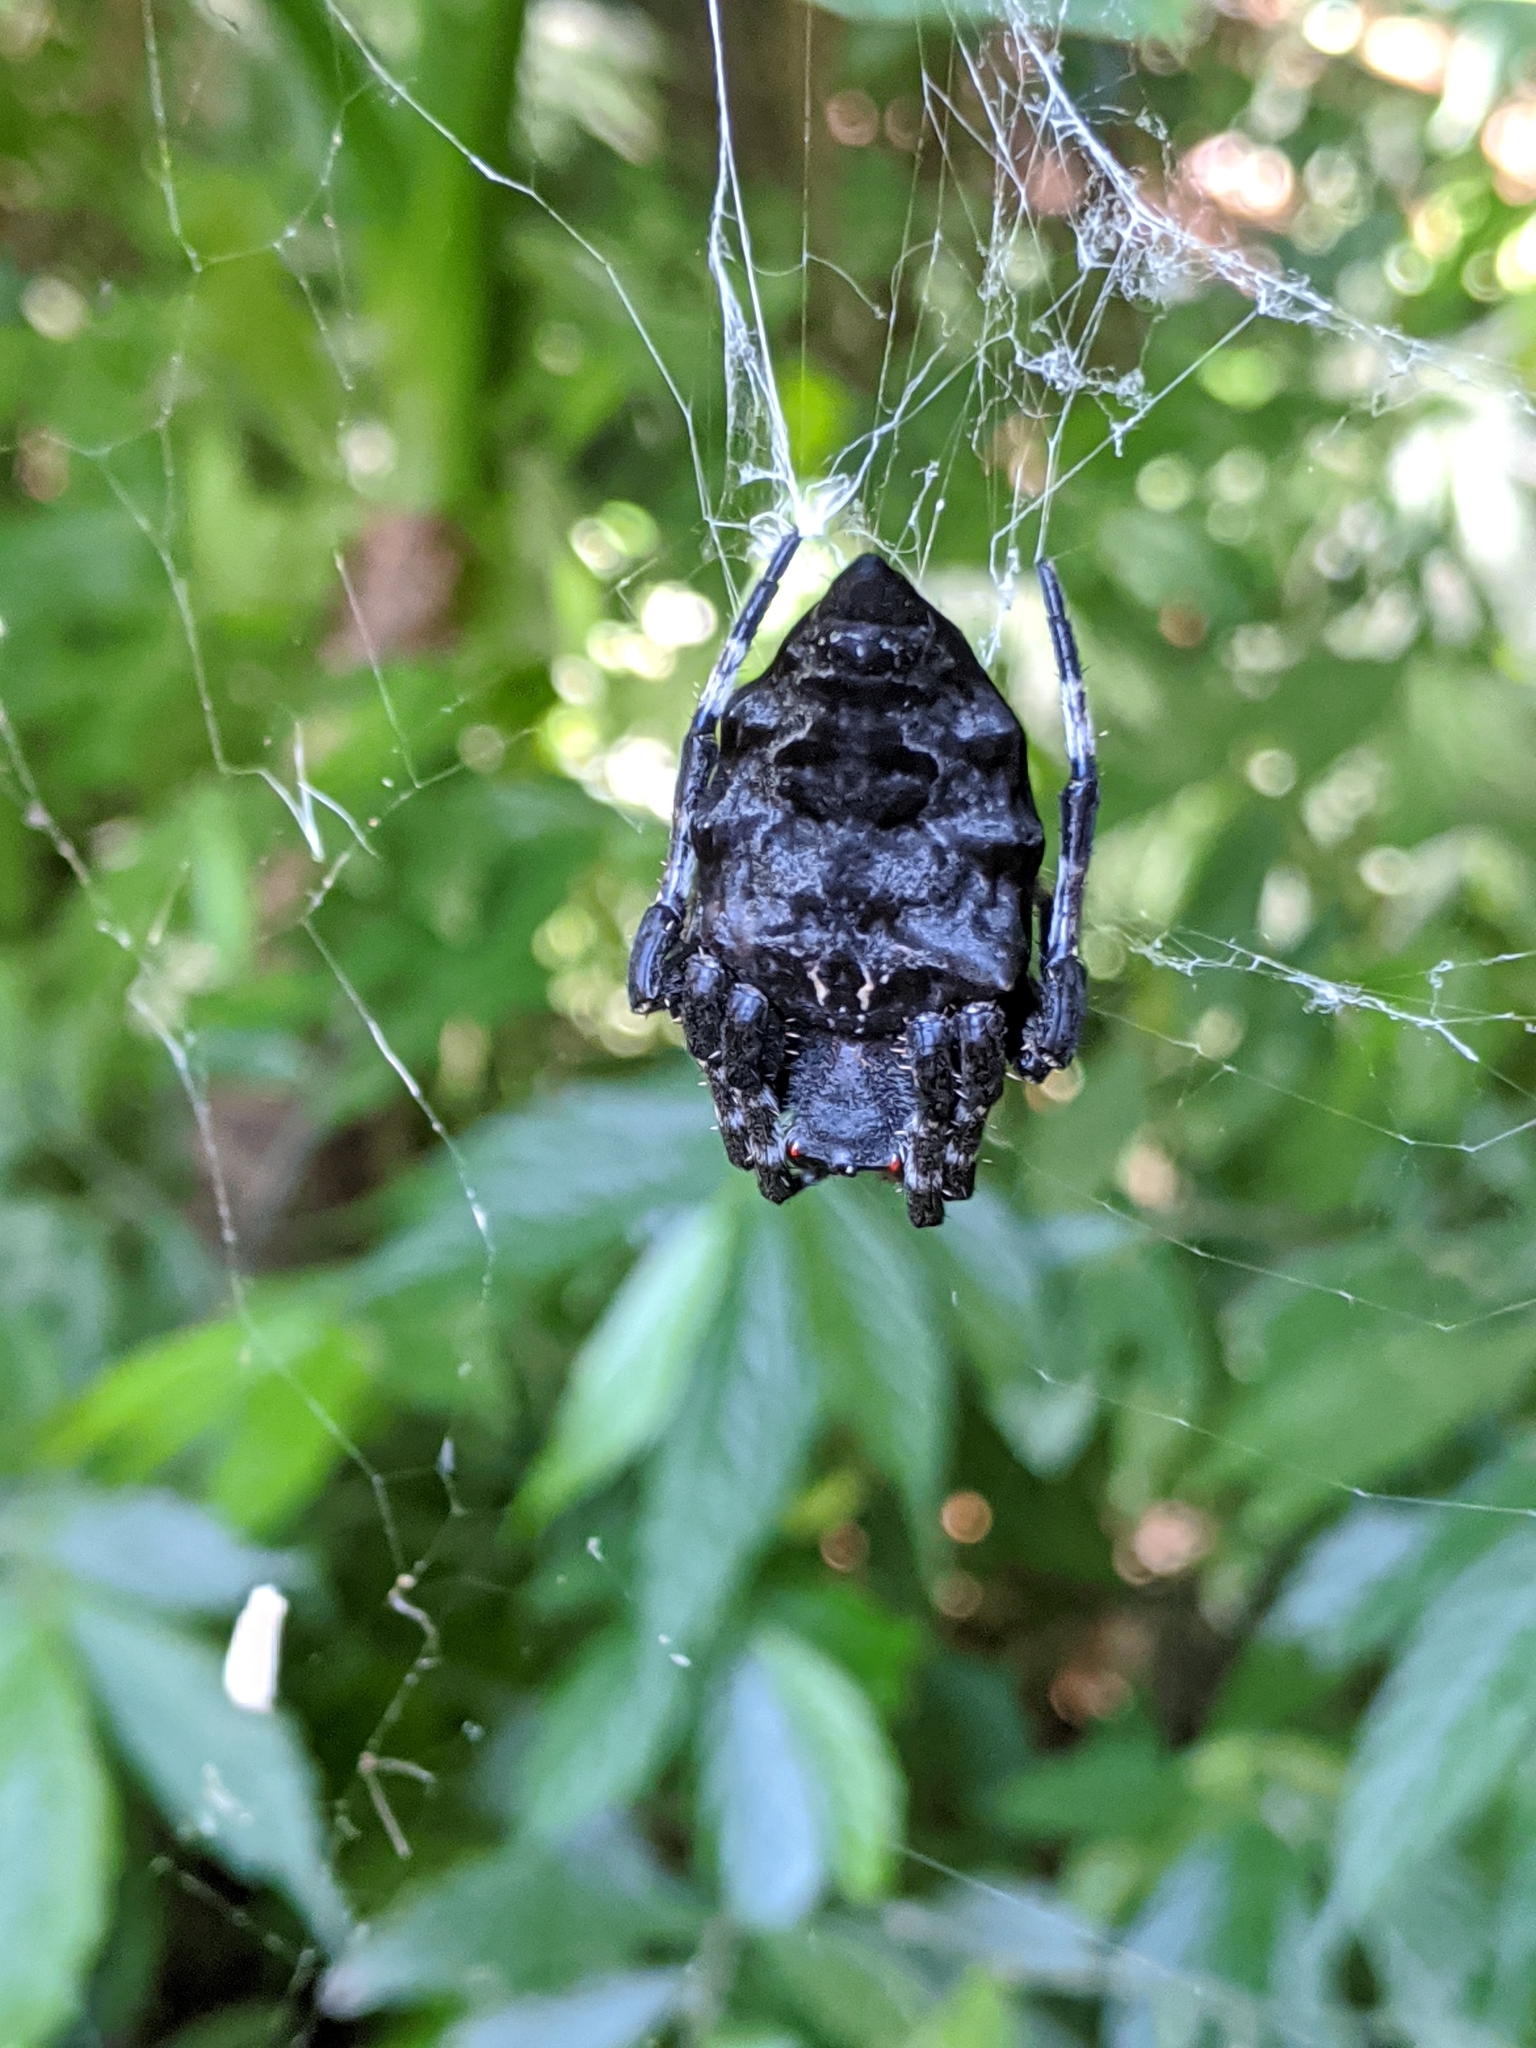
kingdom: Animalia
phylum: Arthropoda
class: Arachnida
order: Araneae
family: Araneidae
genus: Parawixia
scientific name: Parawixia dehaani
